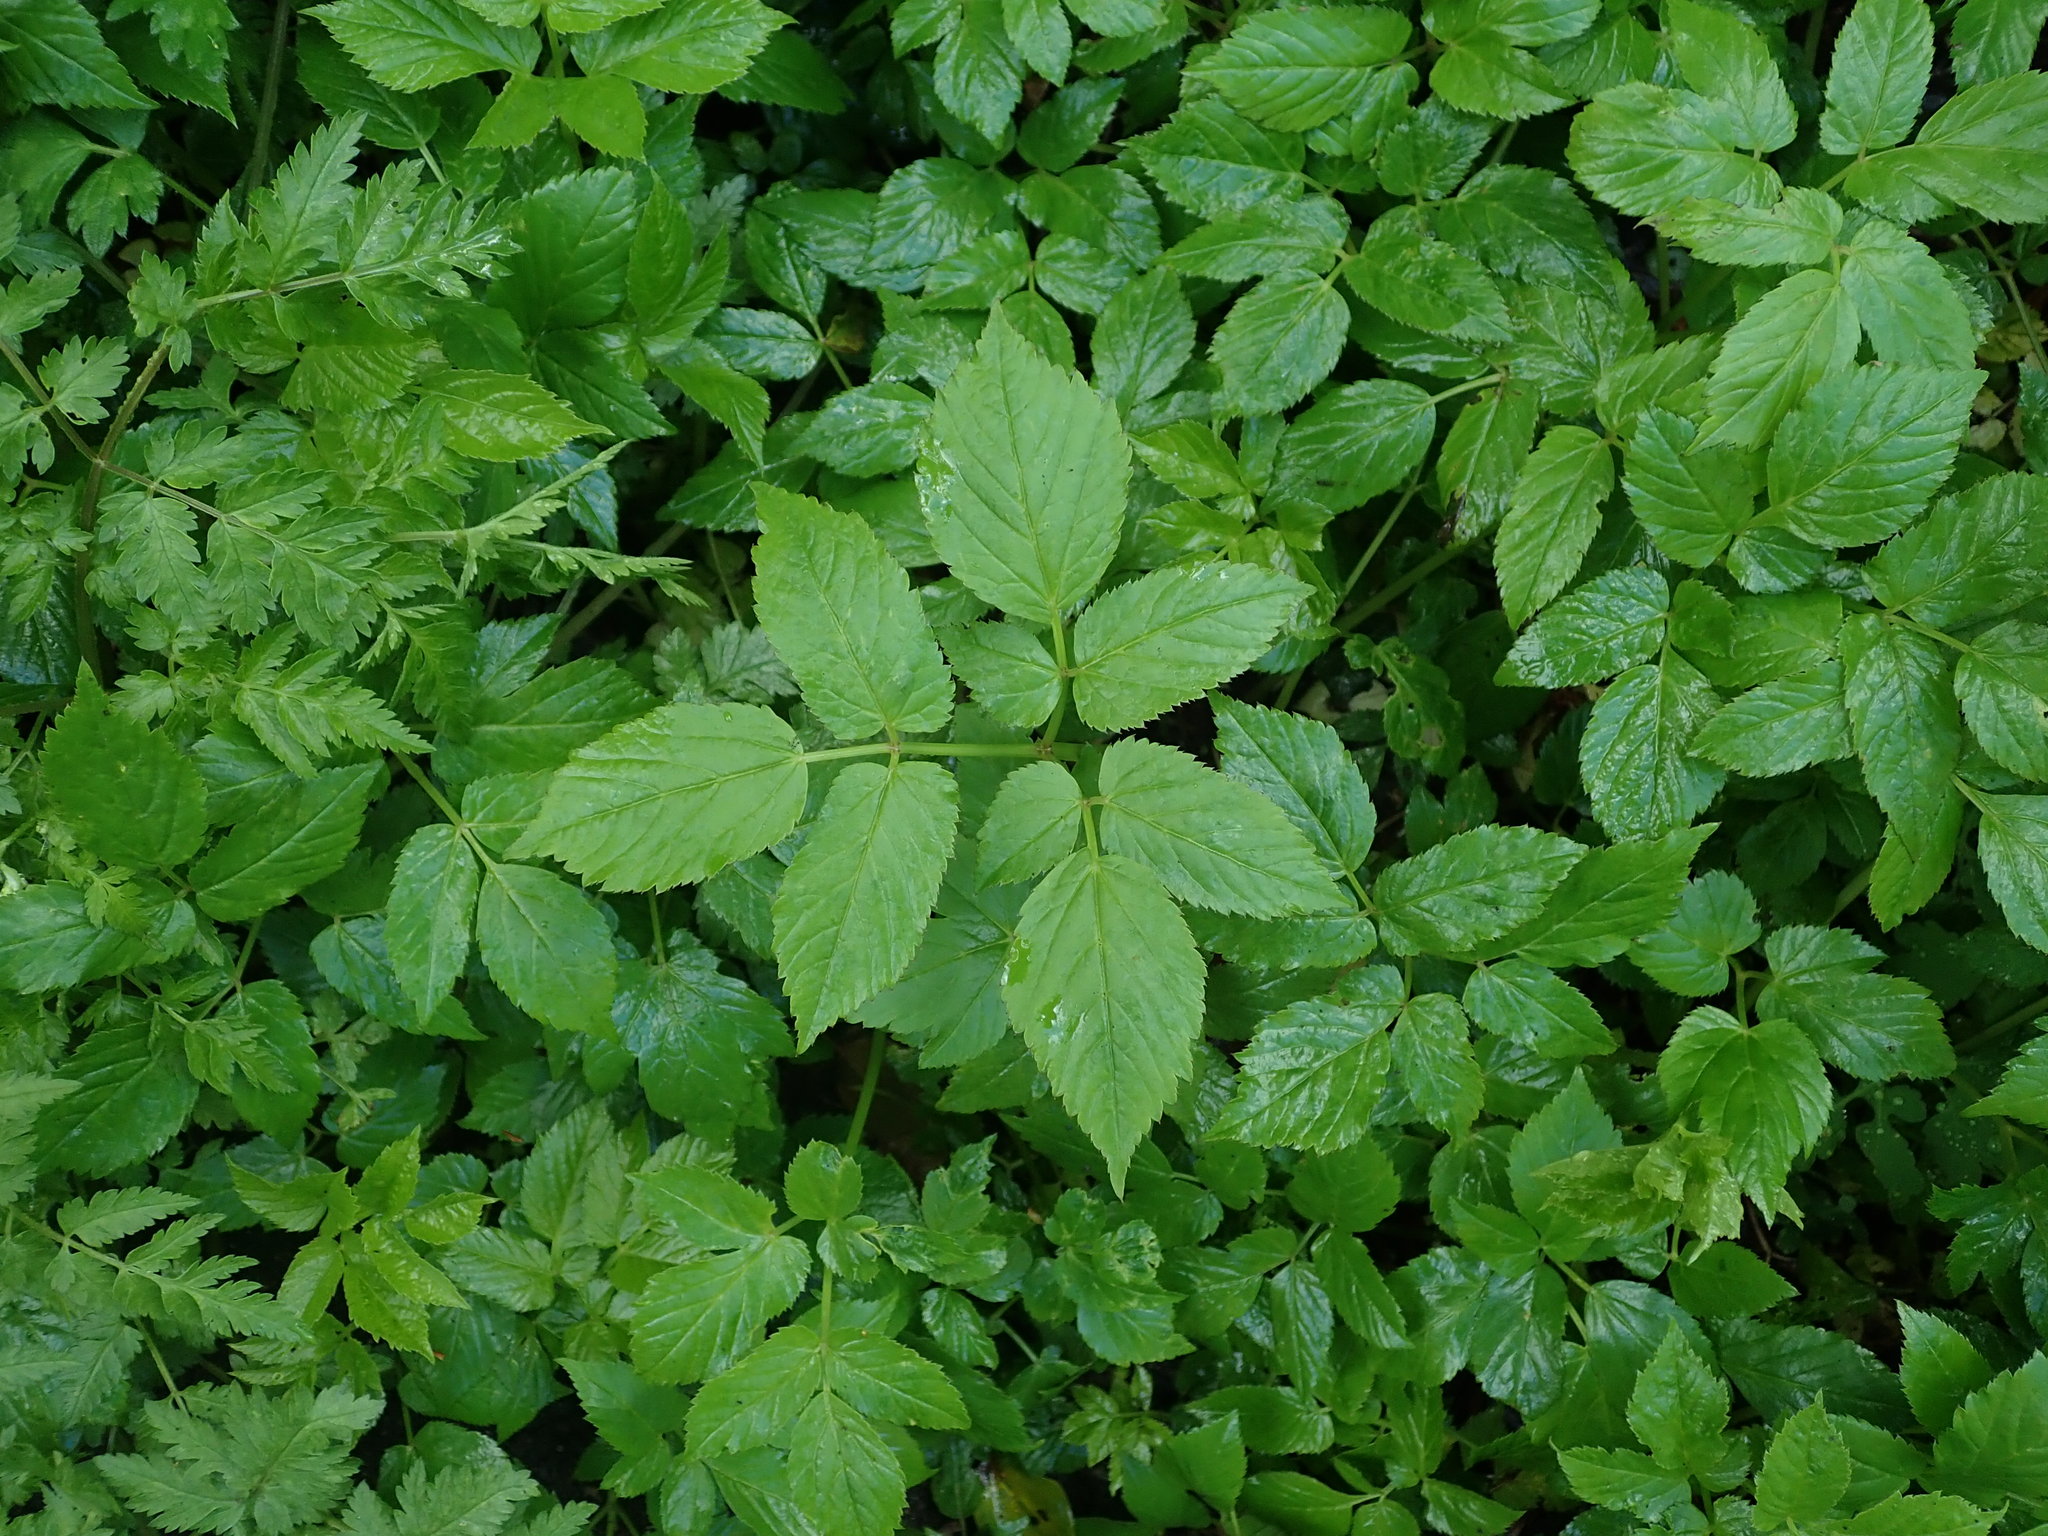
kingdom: Plantae
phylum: Tracheophyta
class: Magnoliopsida
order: Apiales
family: Apiaceae
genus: Aegopodium
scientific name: Aegopodium podagraria
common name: Ground-elder
